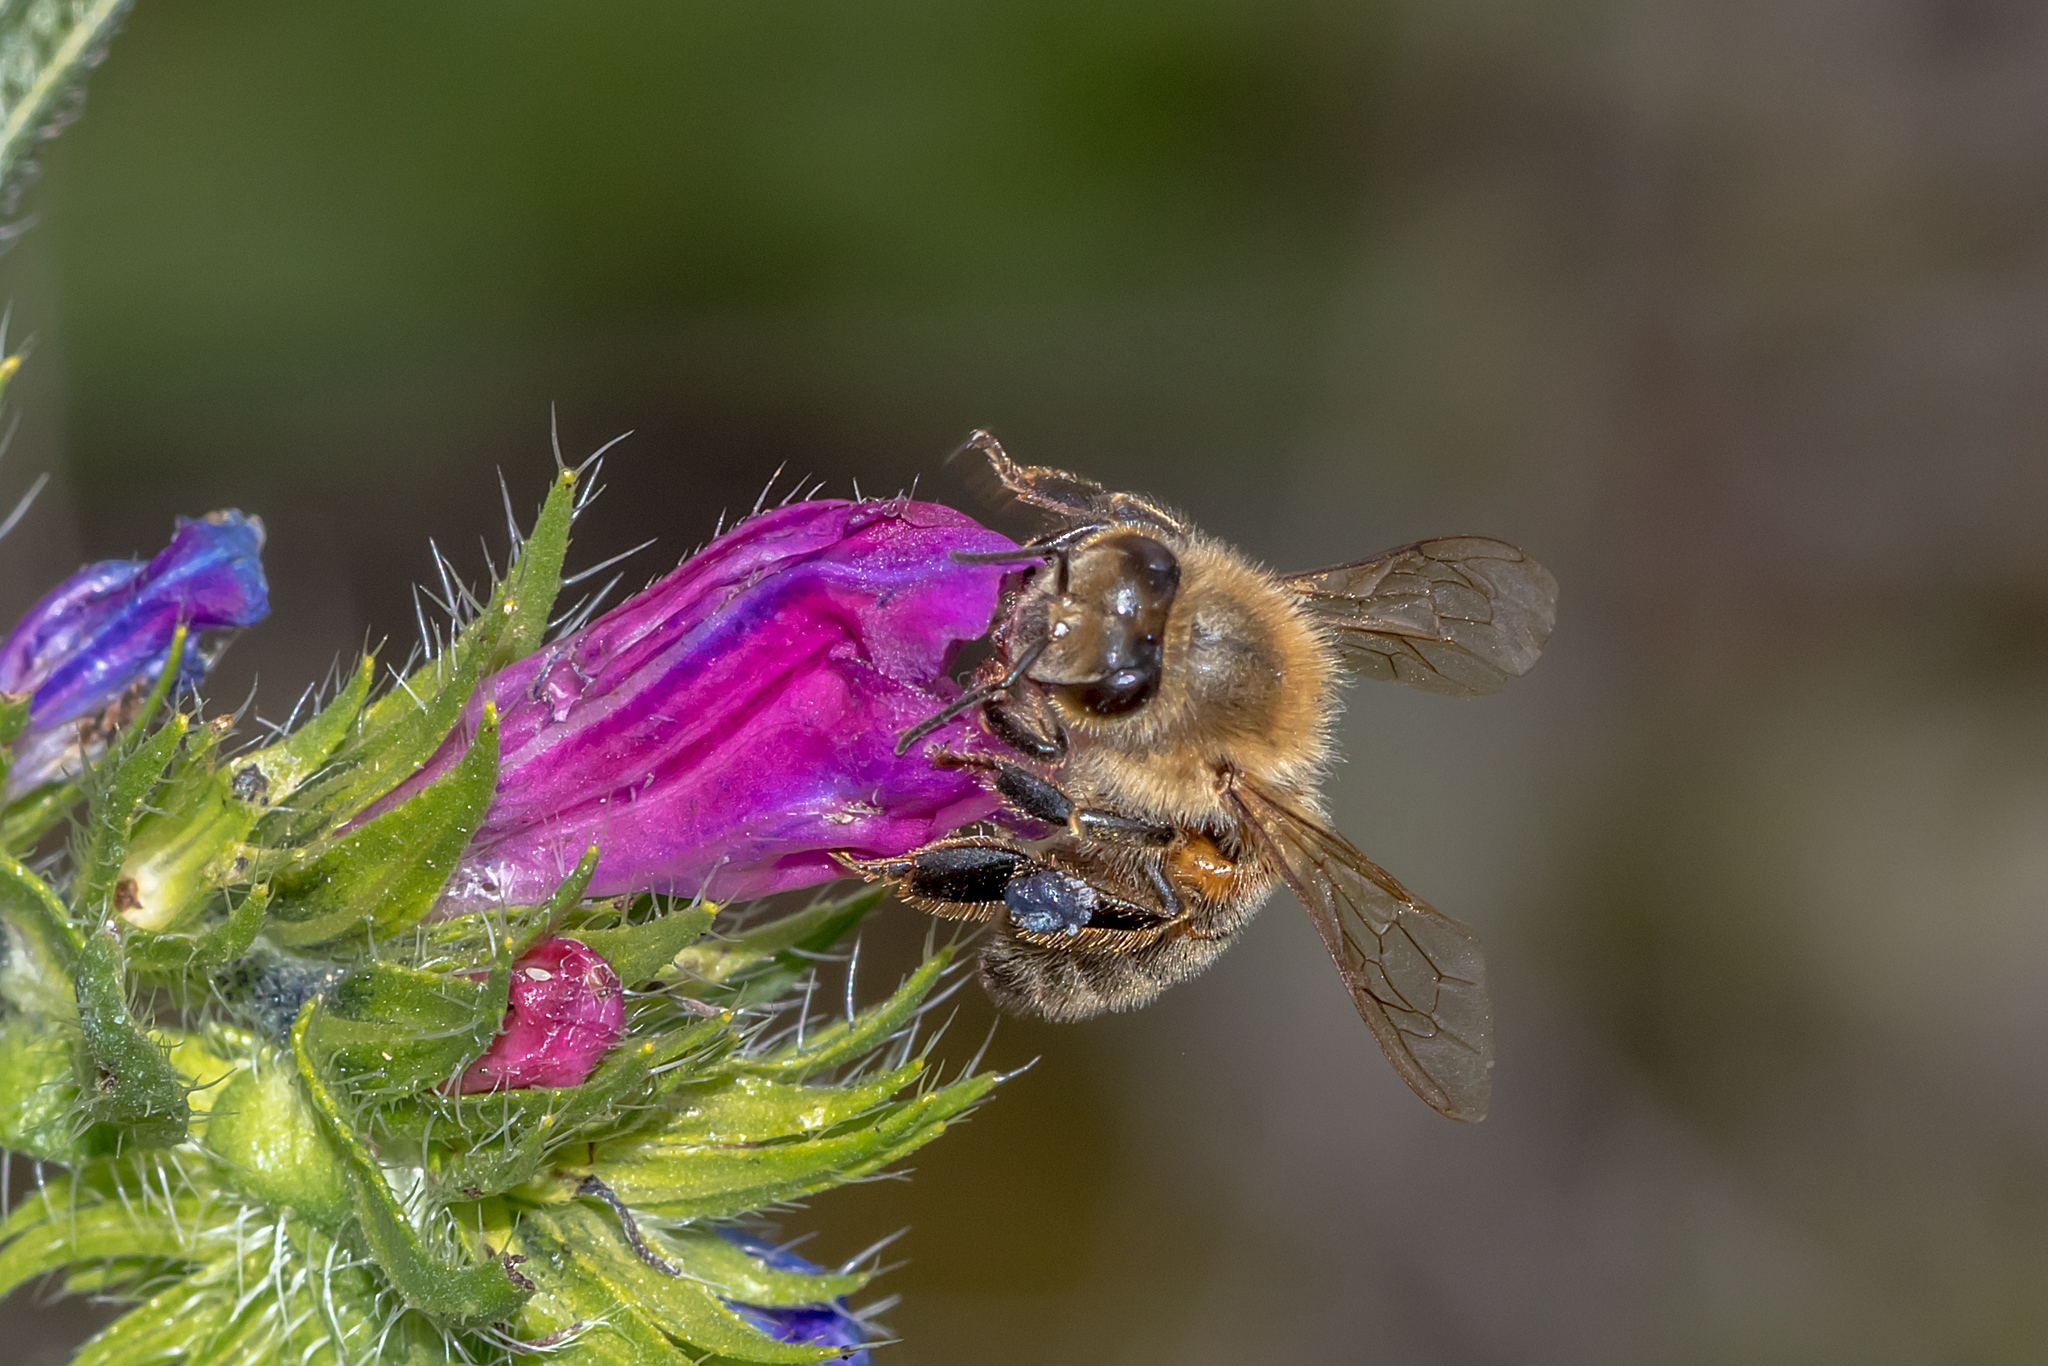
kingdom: Animalia
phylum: Arthropoda
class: Insecta
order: Hymenoptera
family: Apidae
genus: Apis
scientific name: Apis mellifera
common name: Honey bee
